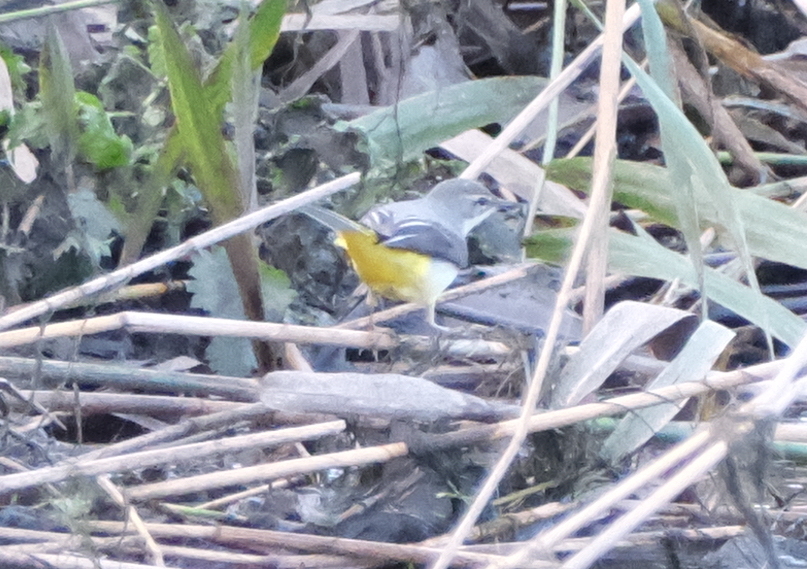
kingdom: Animalia
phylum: Chordata
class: Aves
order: Passeriformes
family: Motacillidae
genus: Motacilla
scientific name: Motacilla cinerea
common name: Grey wagtail
